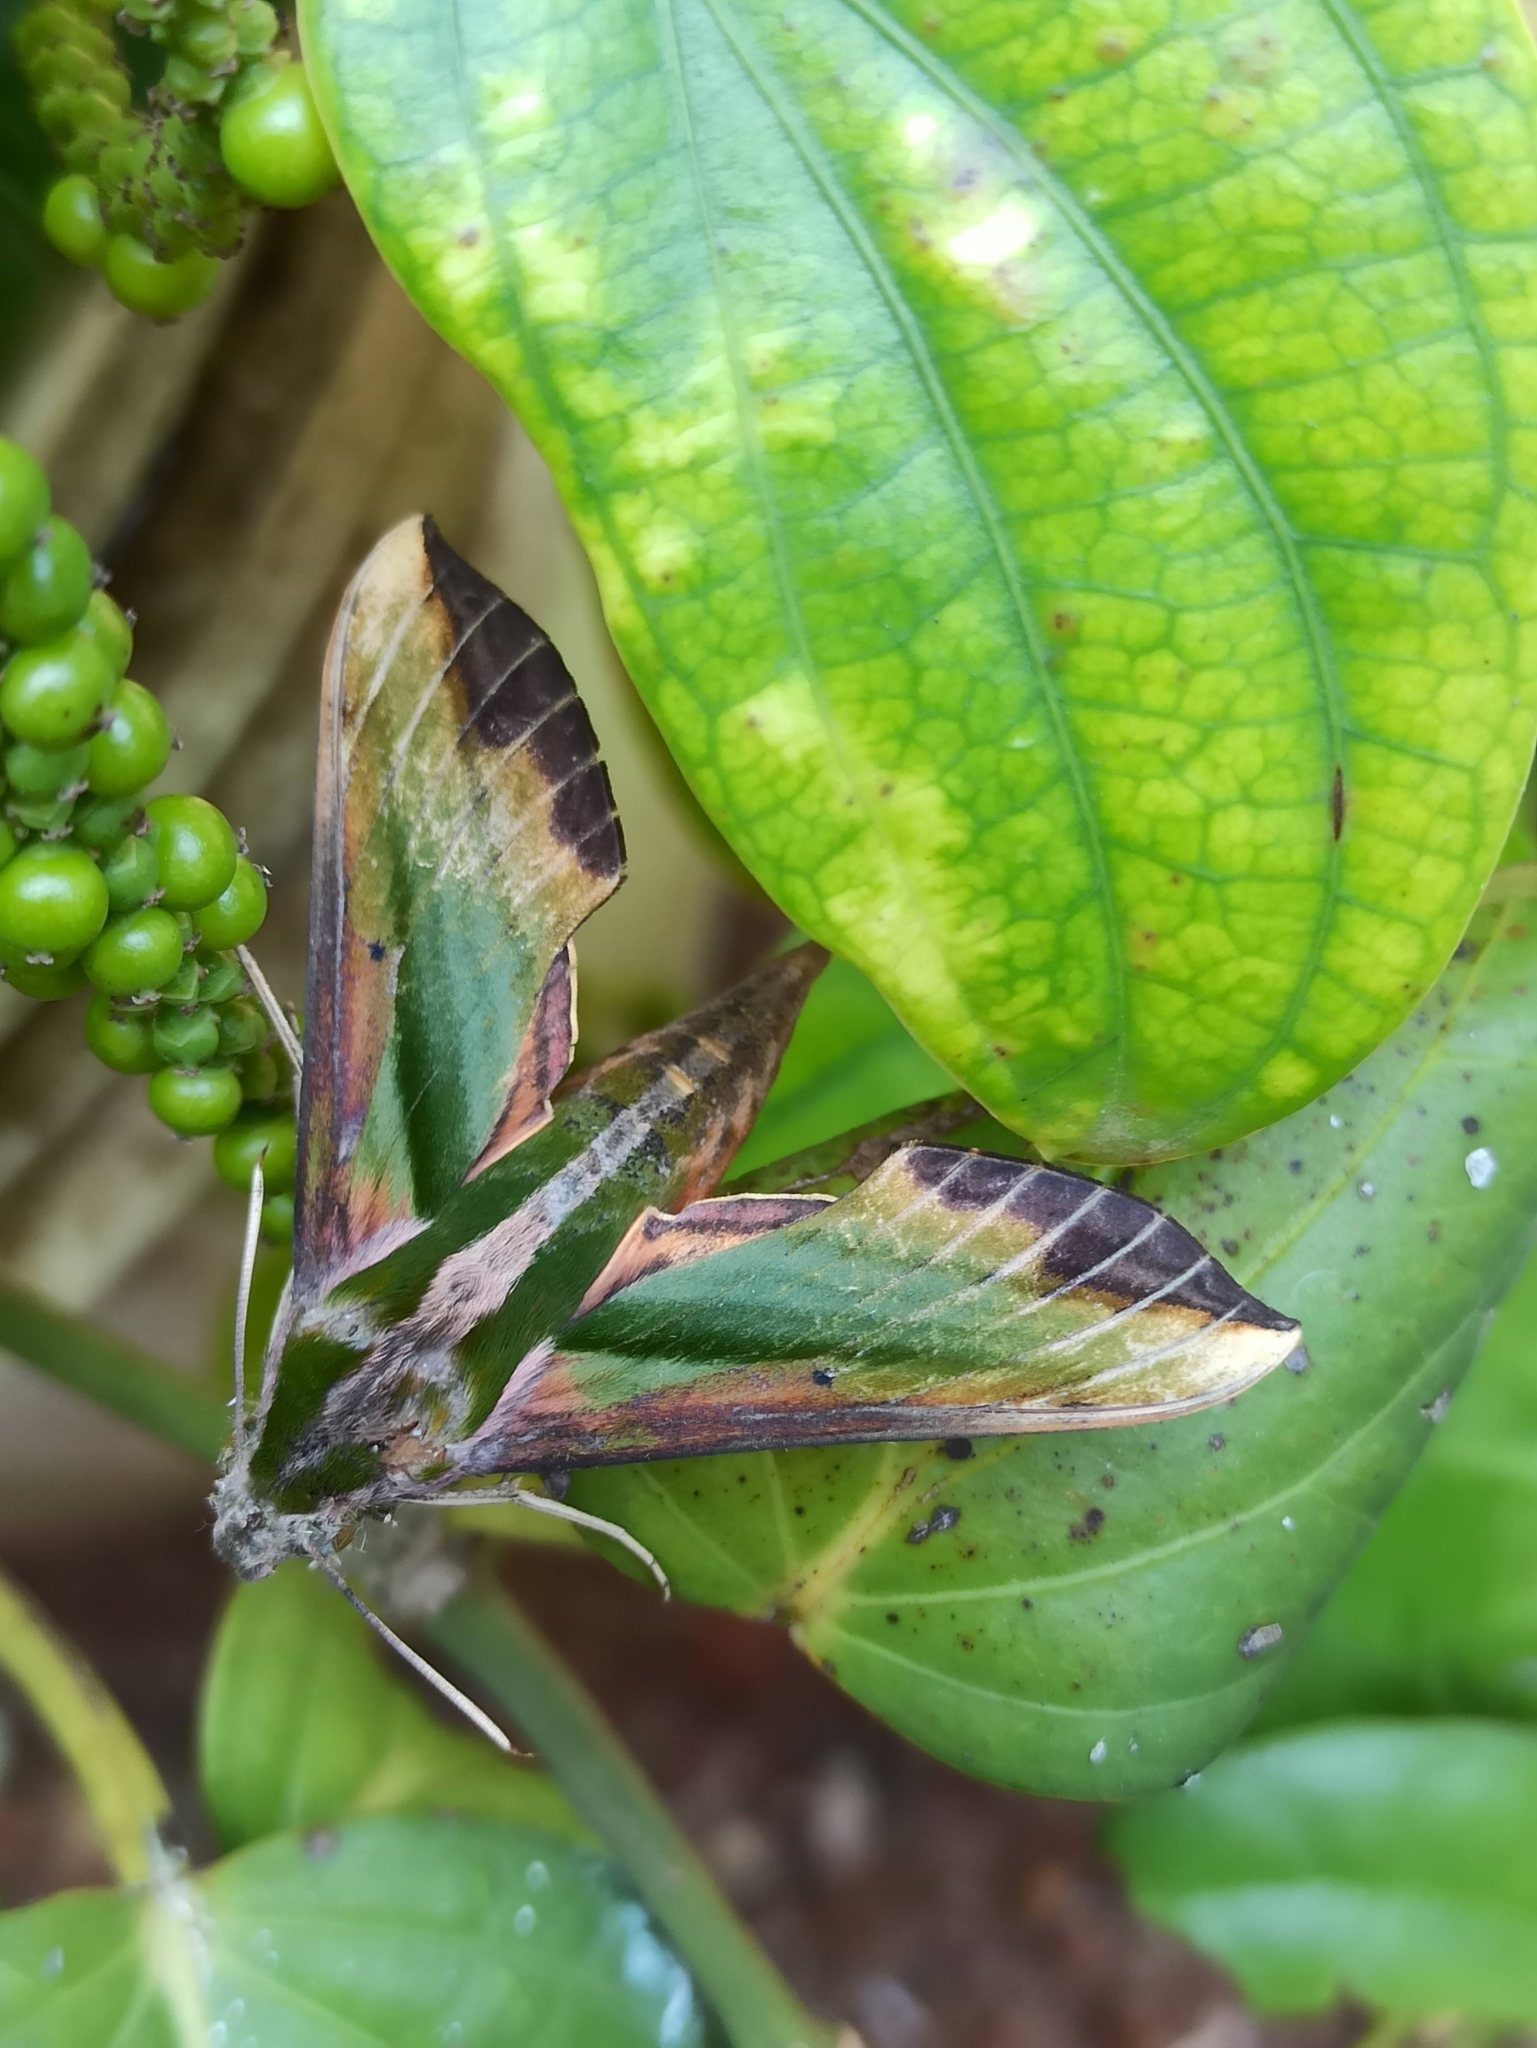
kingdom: Animalia
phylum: Arthropoda
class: Insecta
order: Lepidoptera
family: Sphingidae
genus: Pergesa
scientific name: Pergesa acteus
